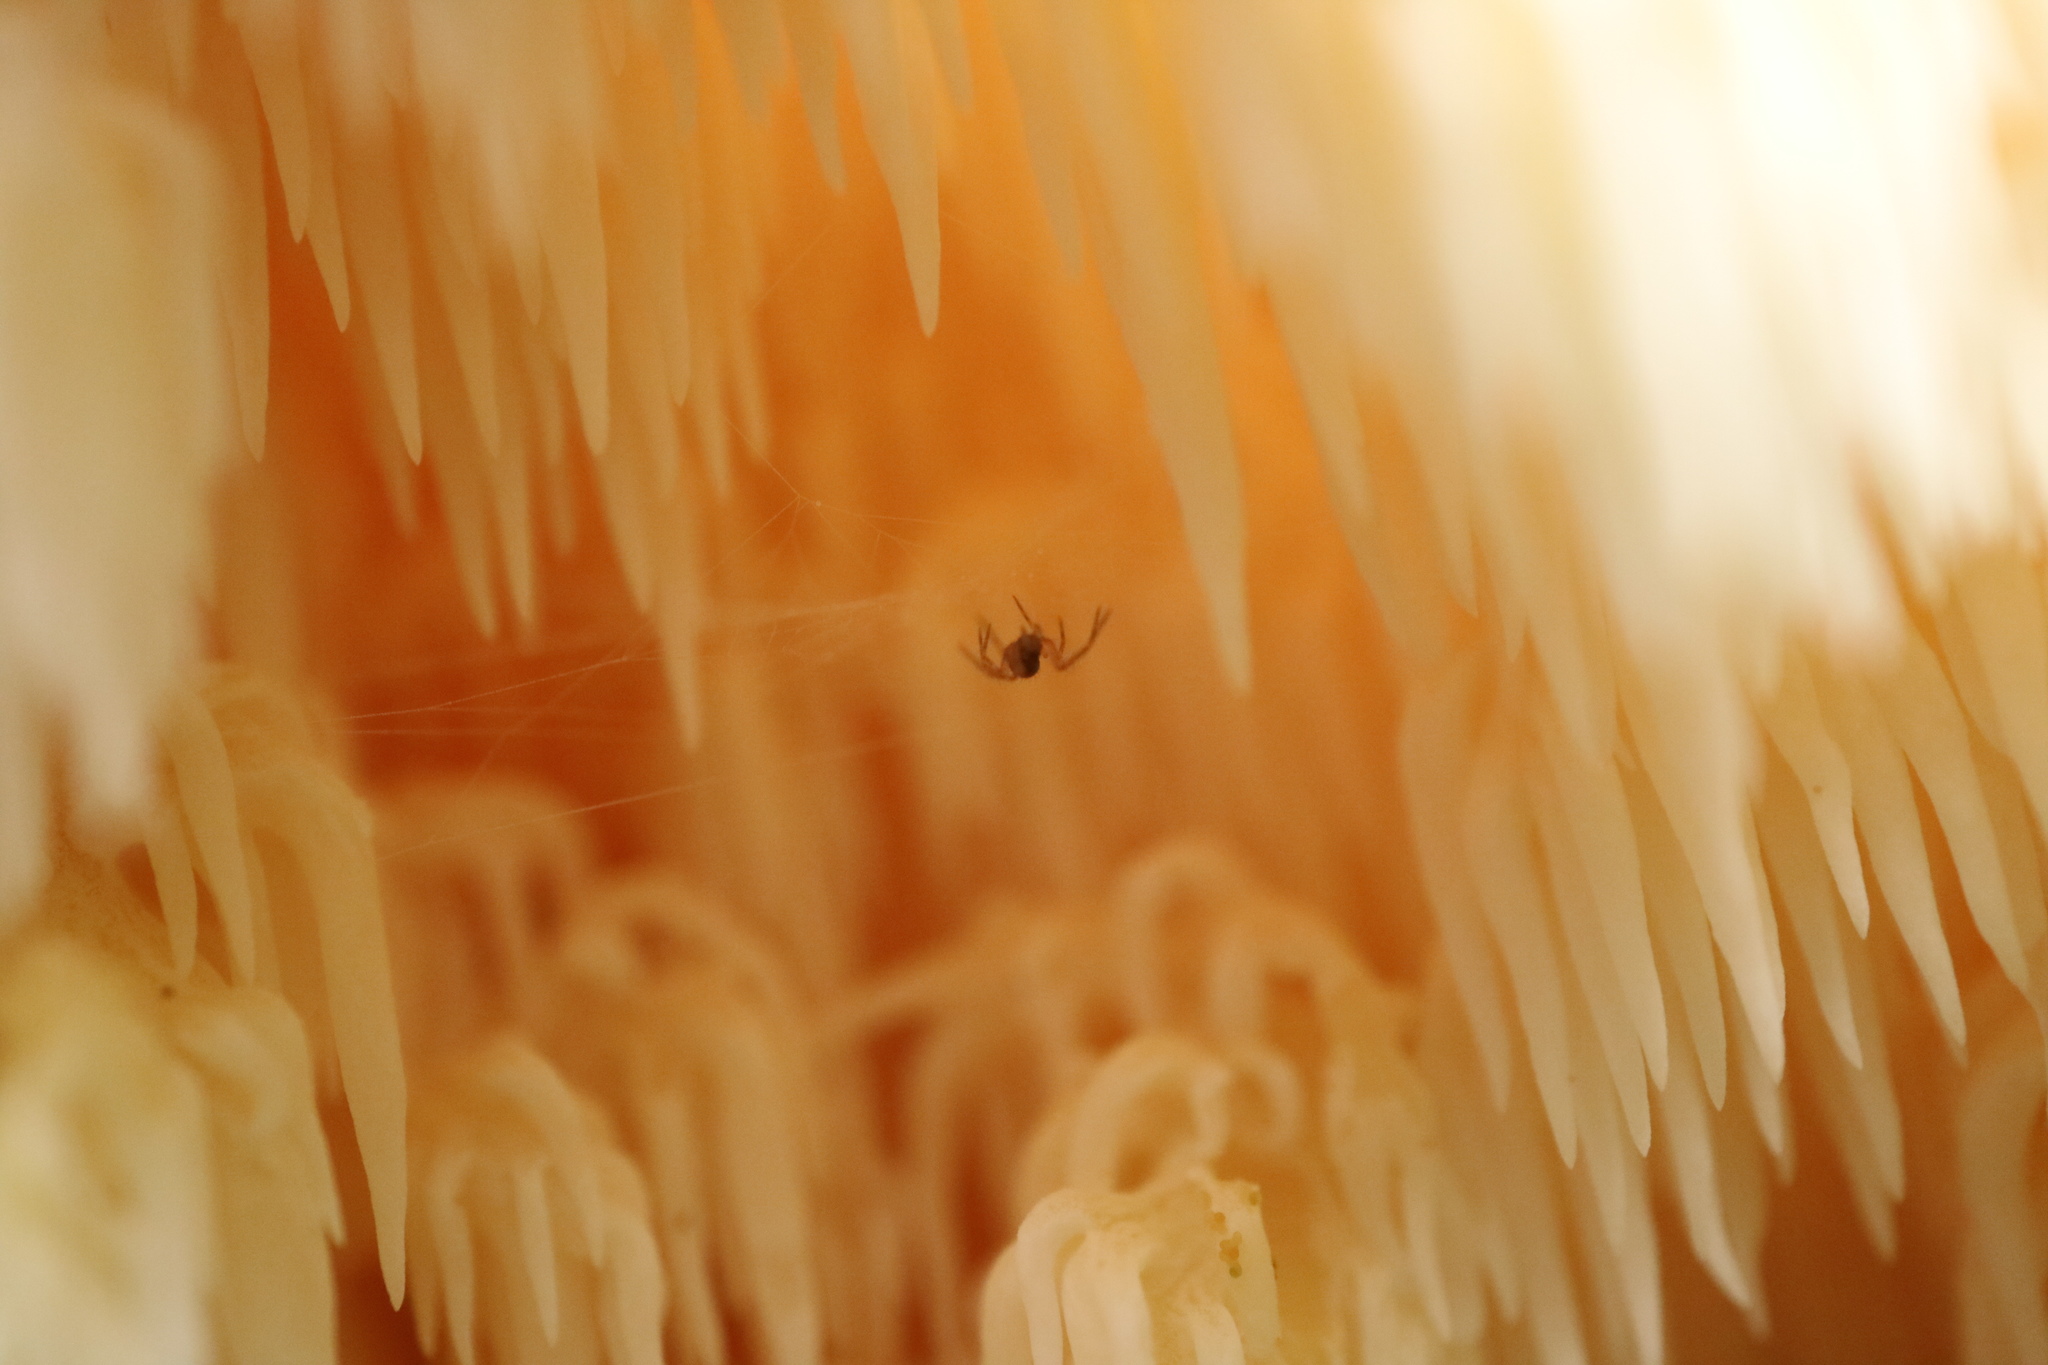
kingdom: Fungi
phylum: Basidiomycota
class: Agaricomycetes
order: Russulales
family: Hericiaceae
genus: Hericium
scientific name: Hericium abietis
